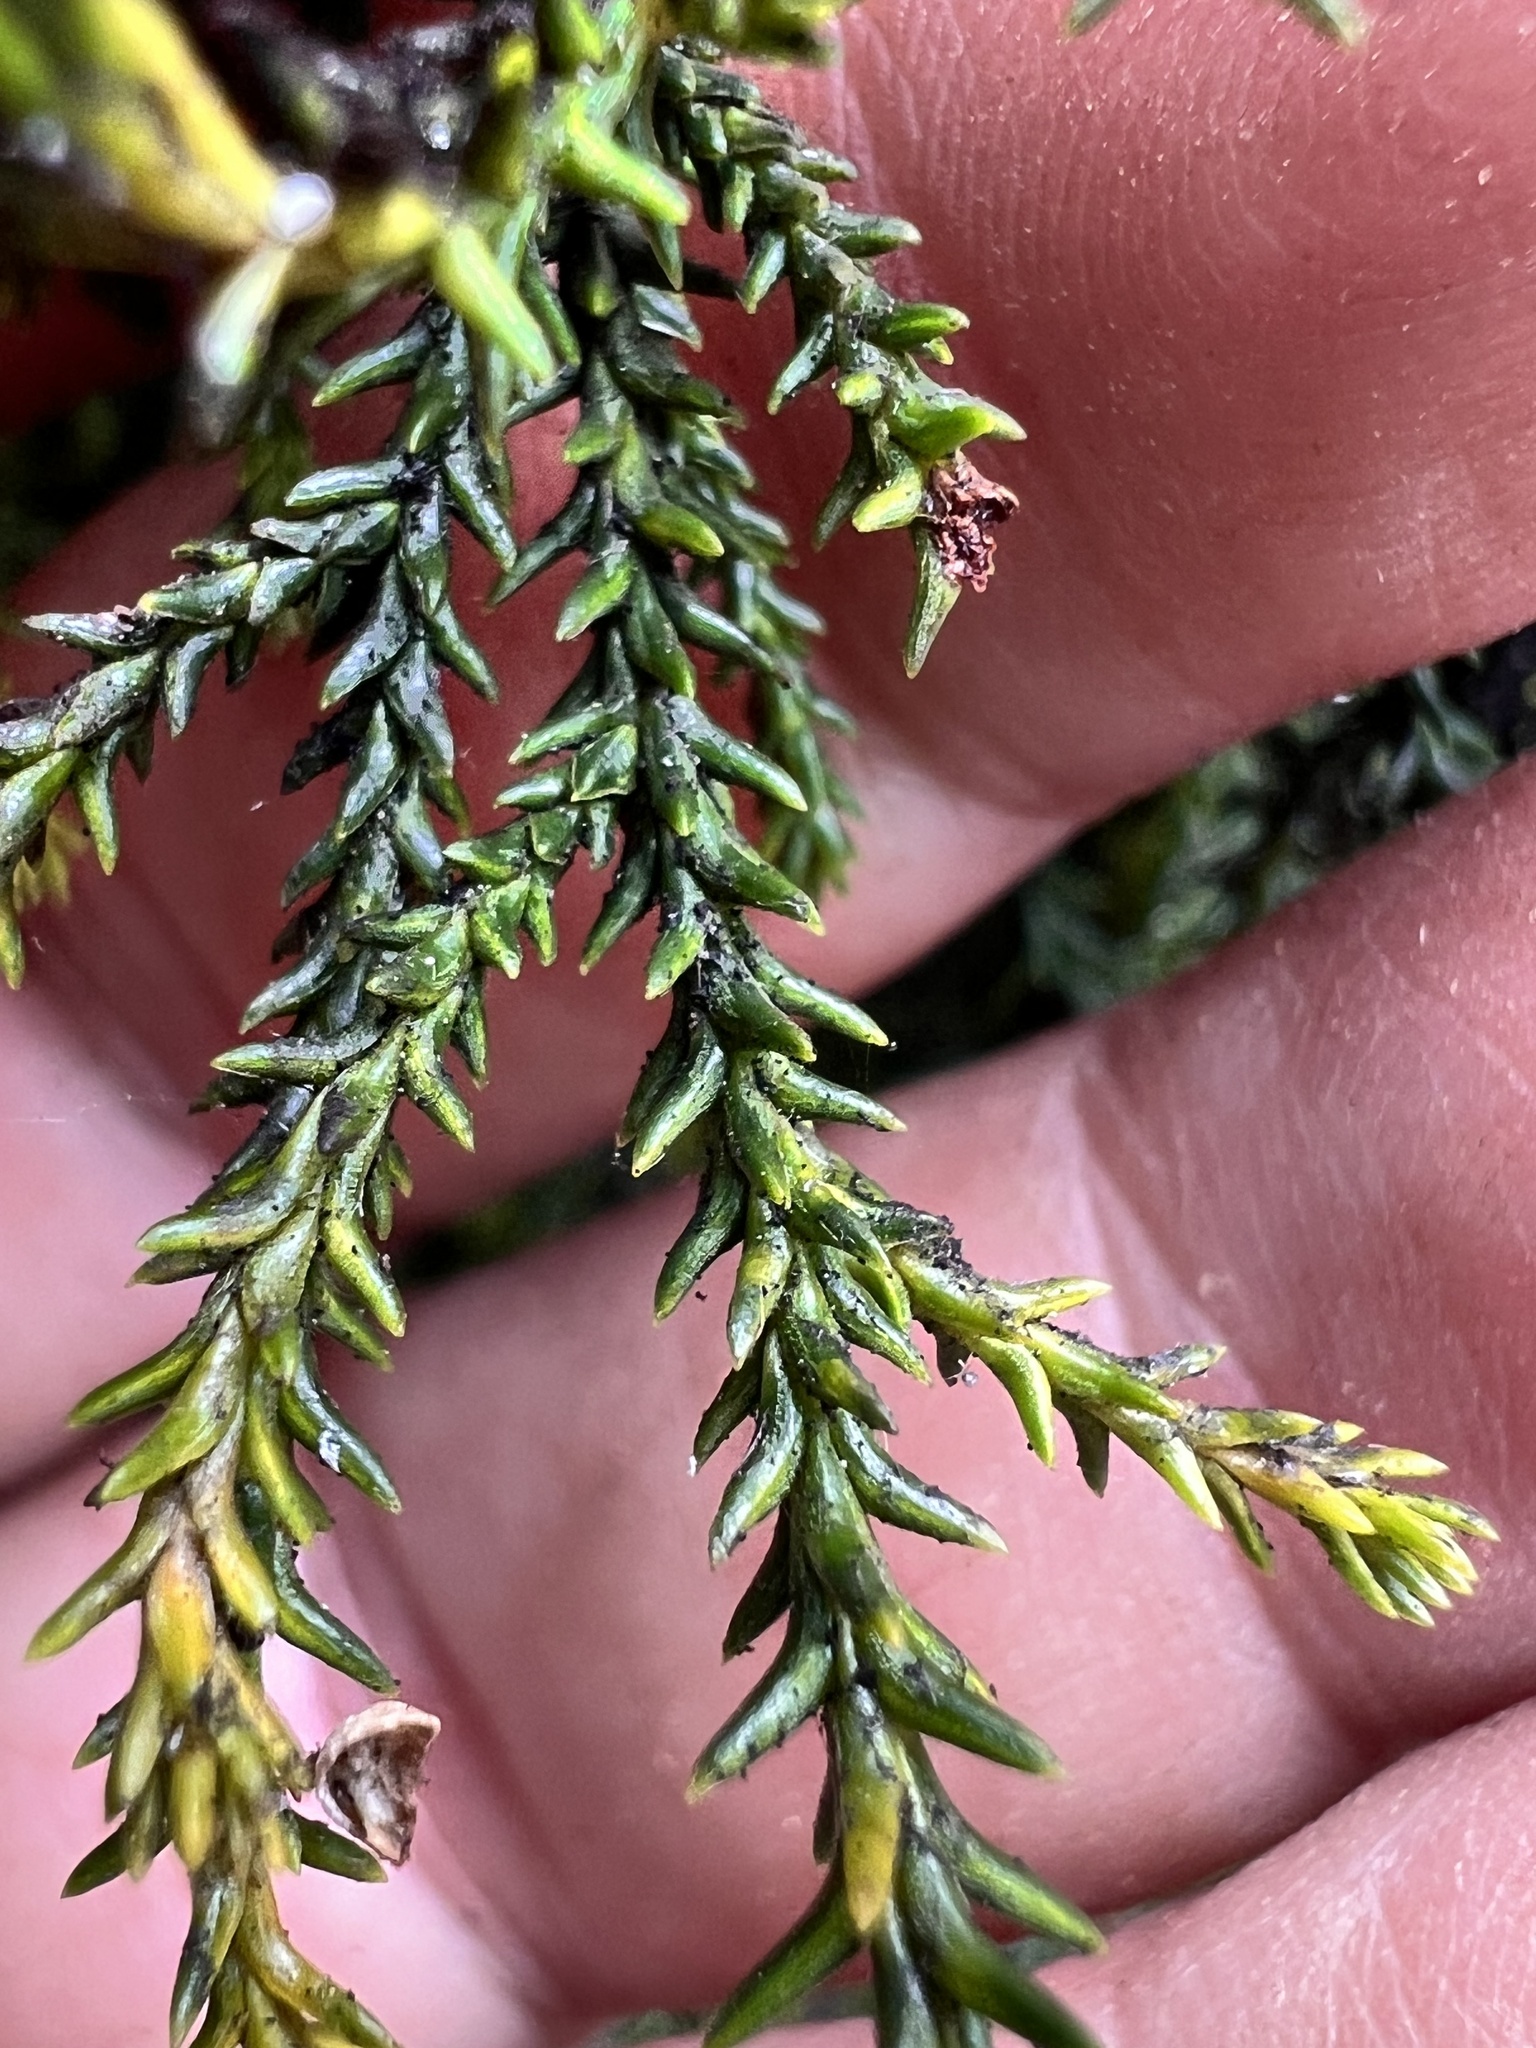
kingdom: Plantae
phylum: Tracheophyta
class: Pinopsida
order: Pinales
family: Podocarpaceae
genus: Lepidothamnus
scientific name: Lepidothamnus intermedius
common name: Yellow silver pine
